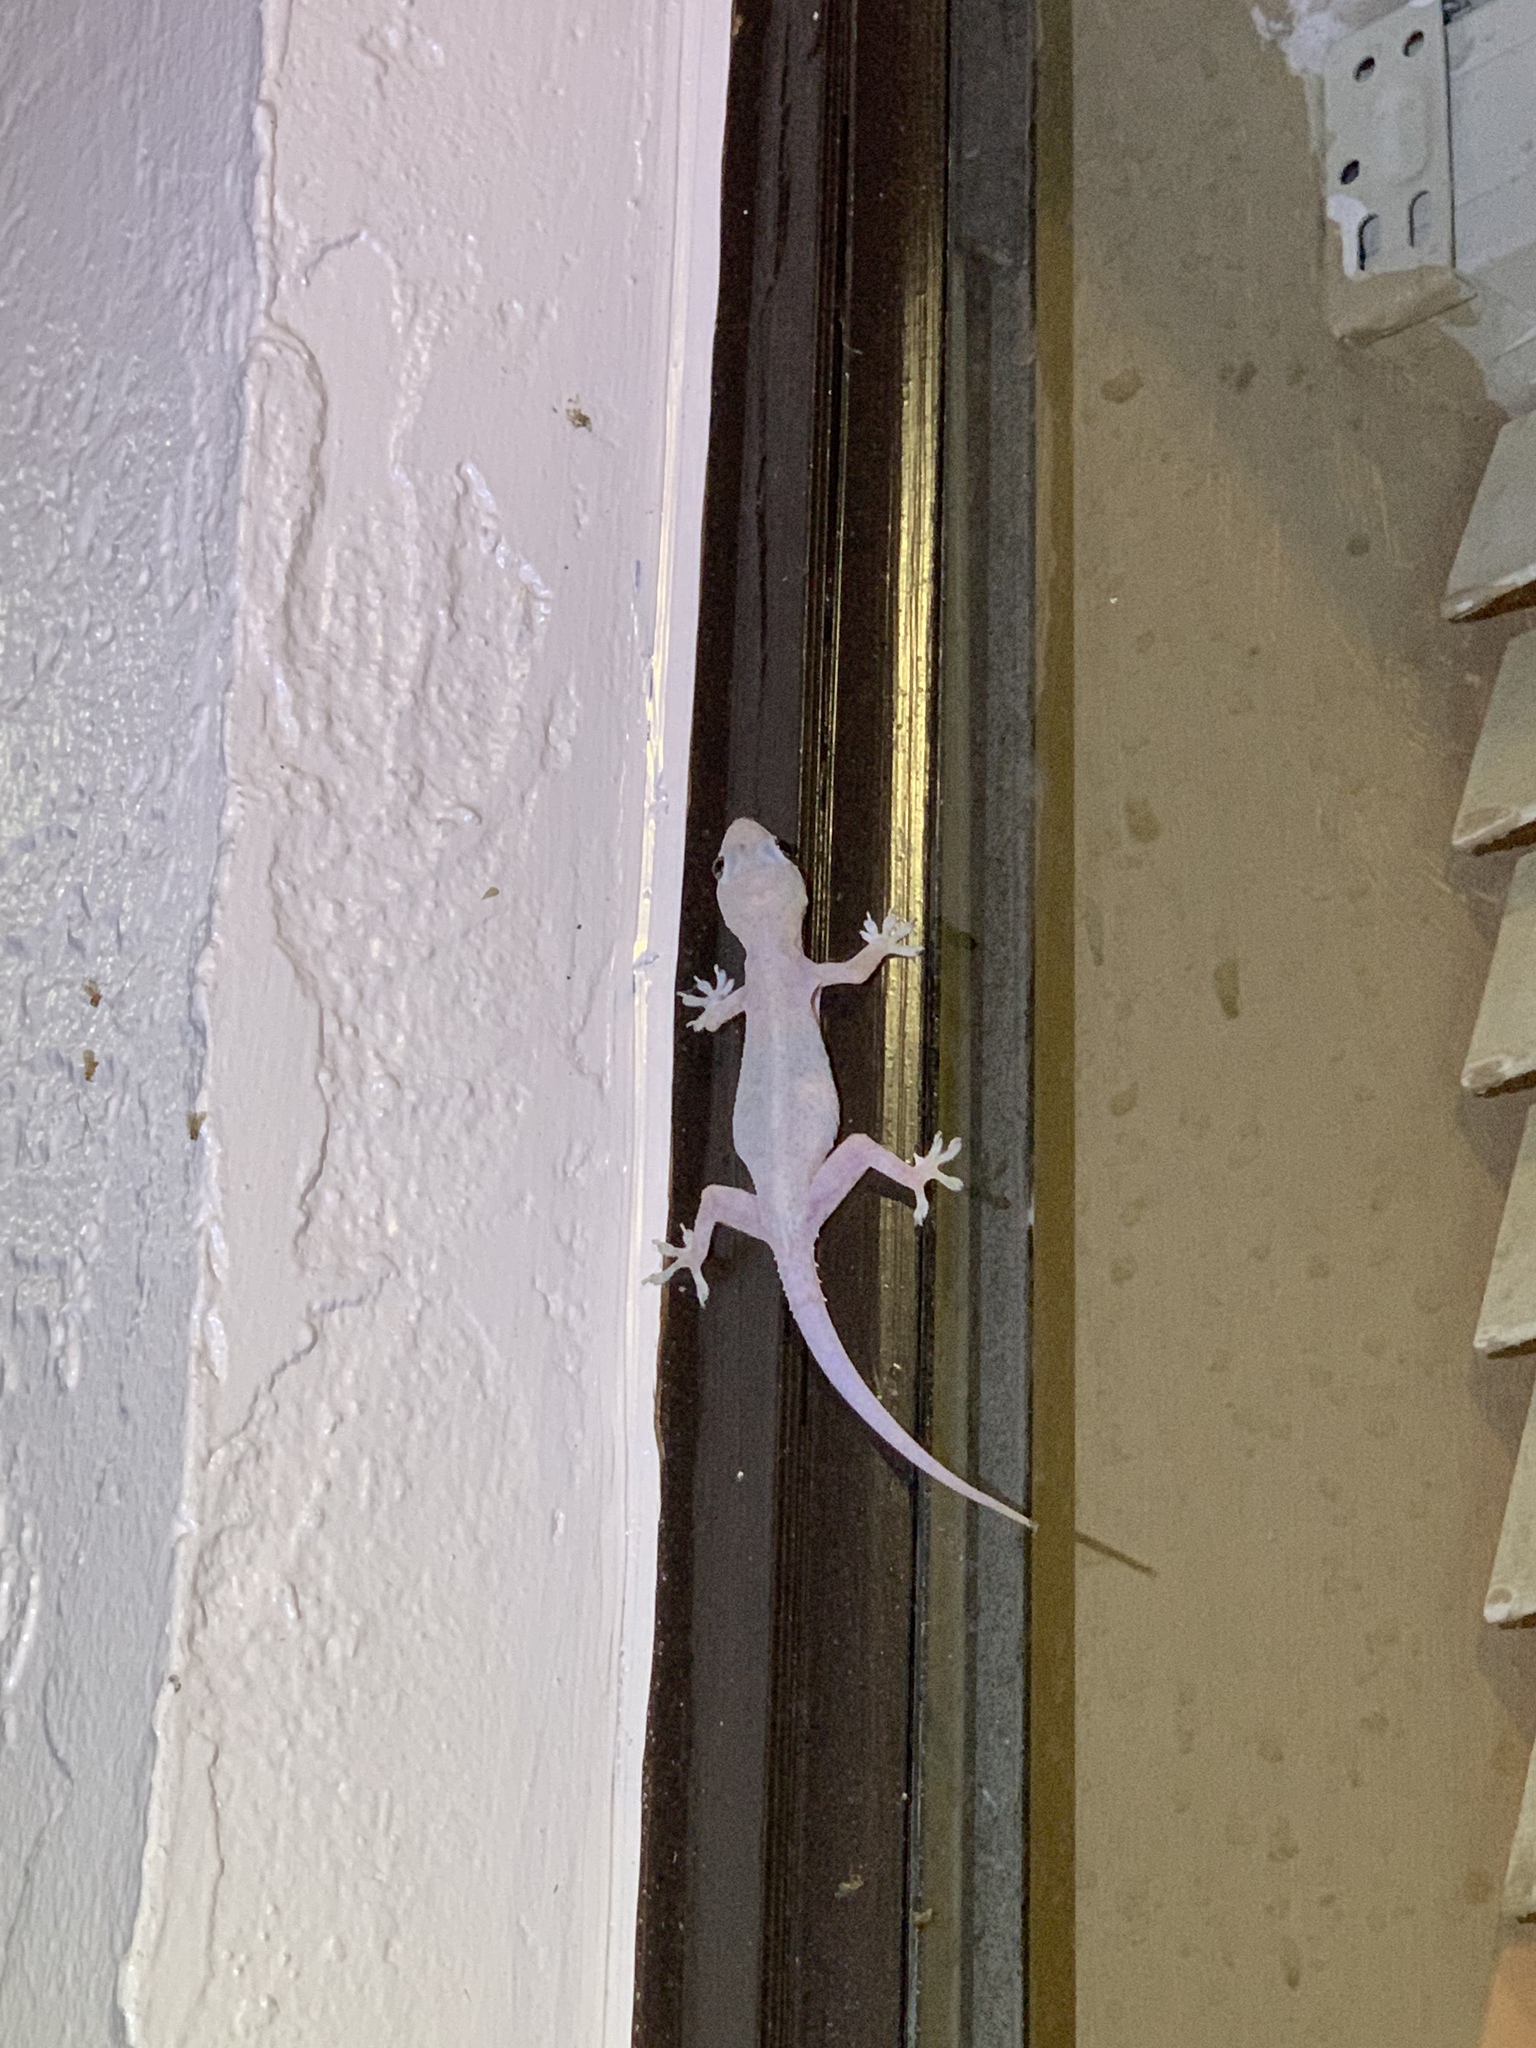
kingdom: Animalia
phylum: Chordata
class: Squamata
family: Gekkonidae
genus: Hemidactylus
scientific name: Hemidactylus mabouia
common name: House gecko
